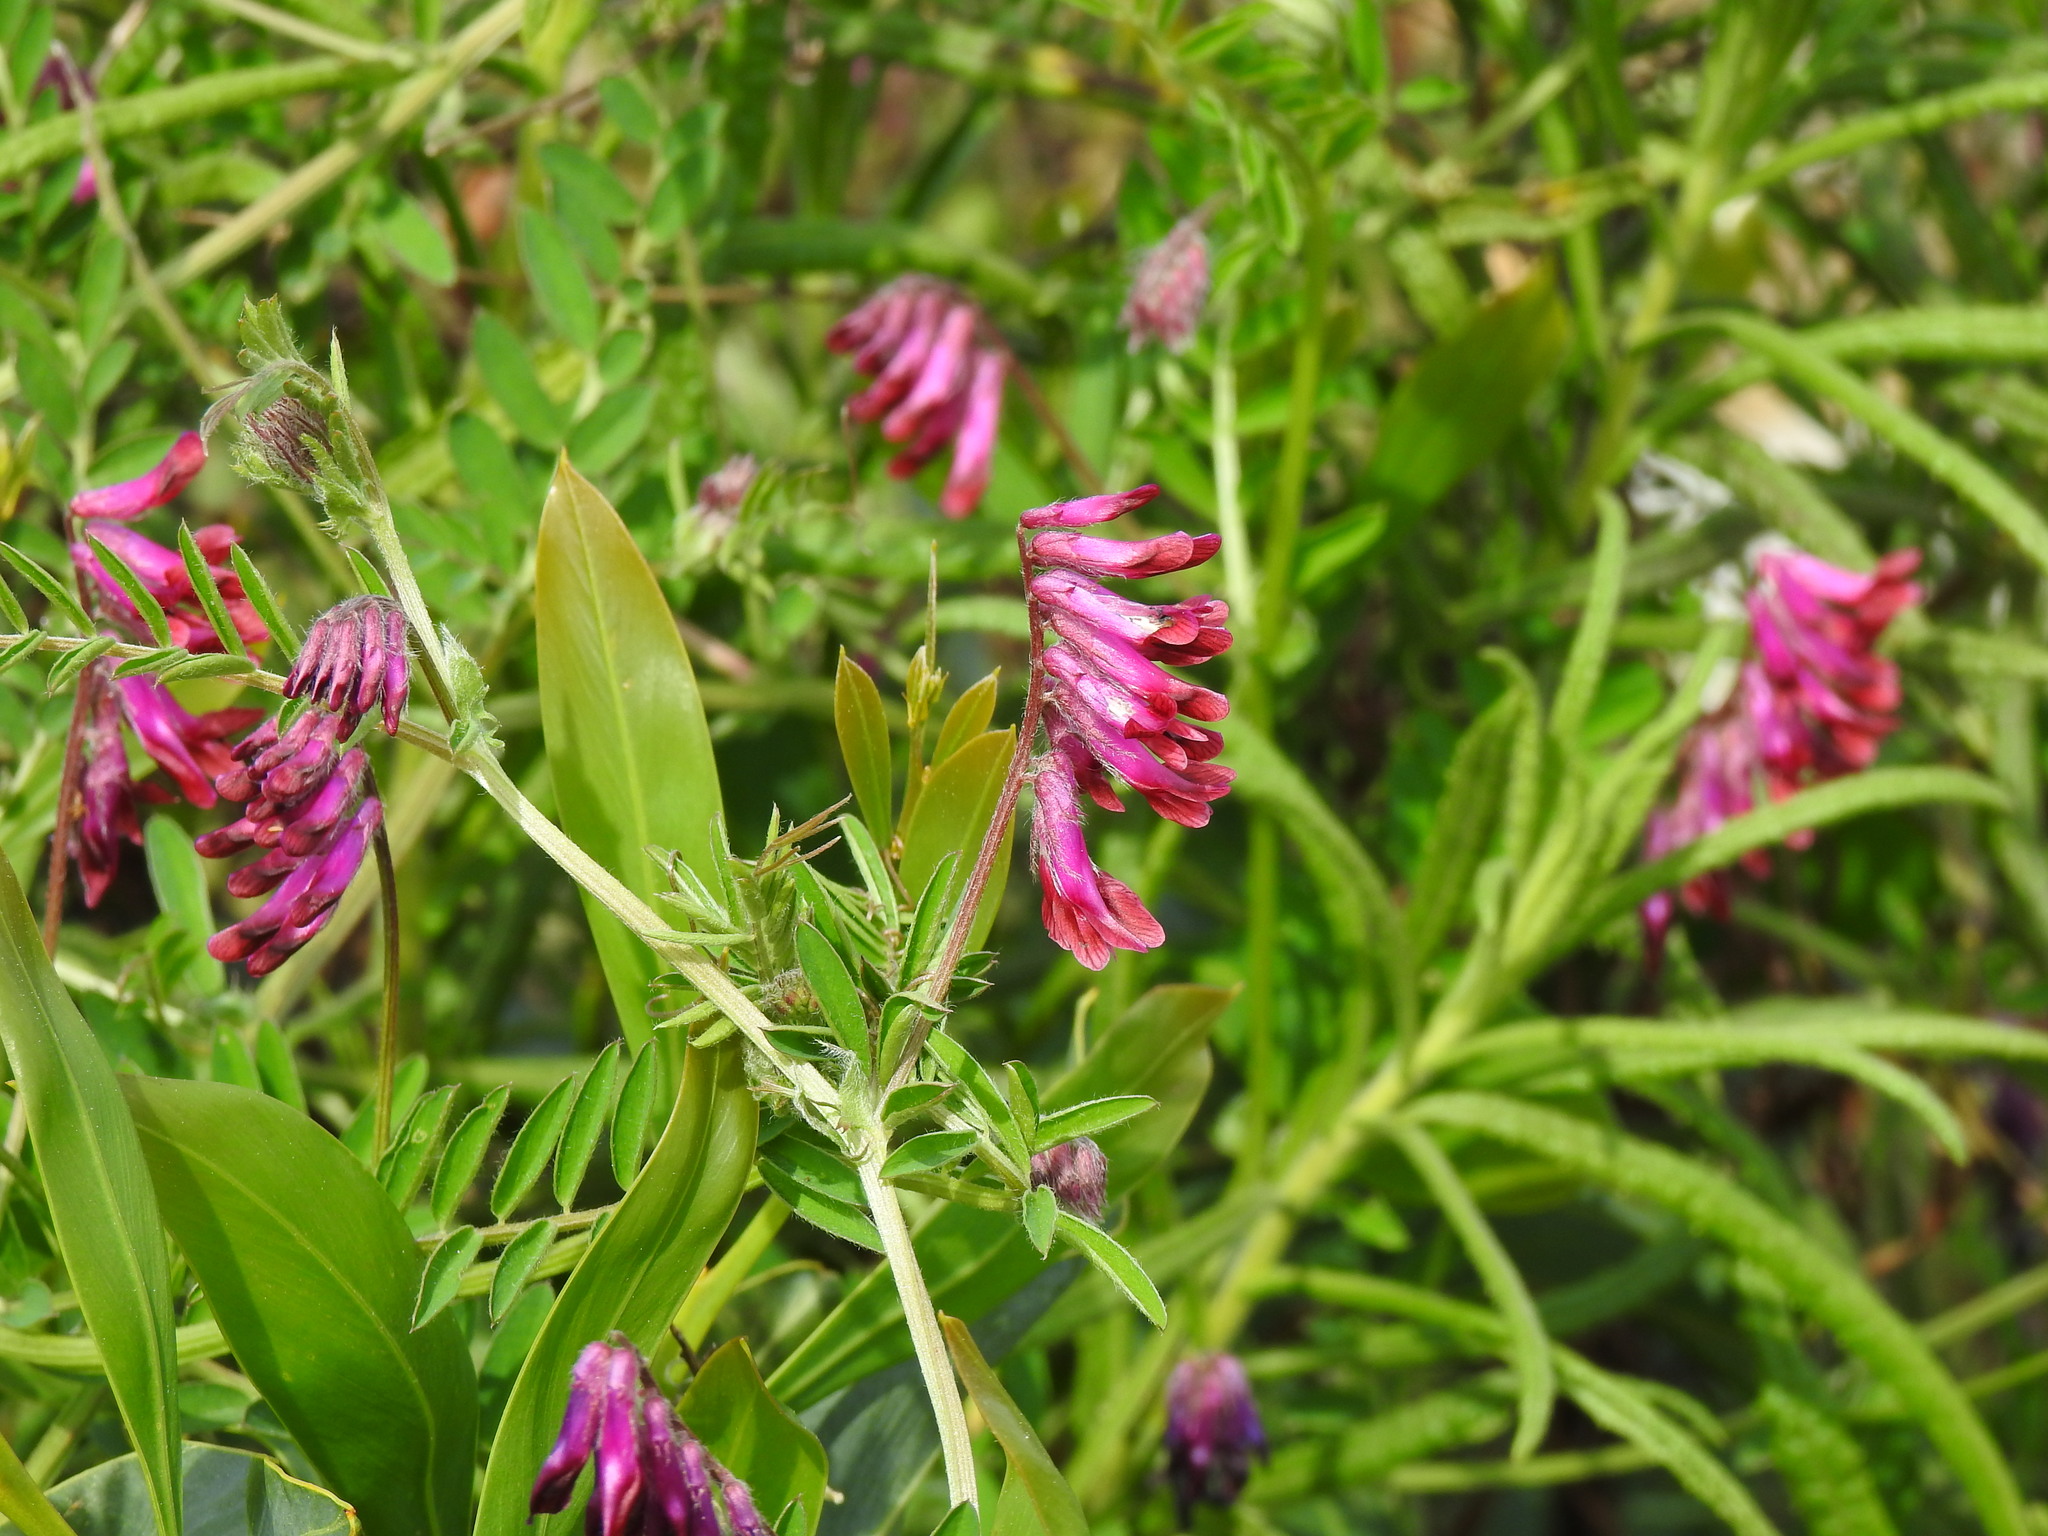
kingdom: Plantae
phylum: Tracheophyta
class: Magnoliopsida
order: Fabales
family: Fabaceae
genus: Vicia
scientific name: Vicia benghalensis
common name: Purple vetch
